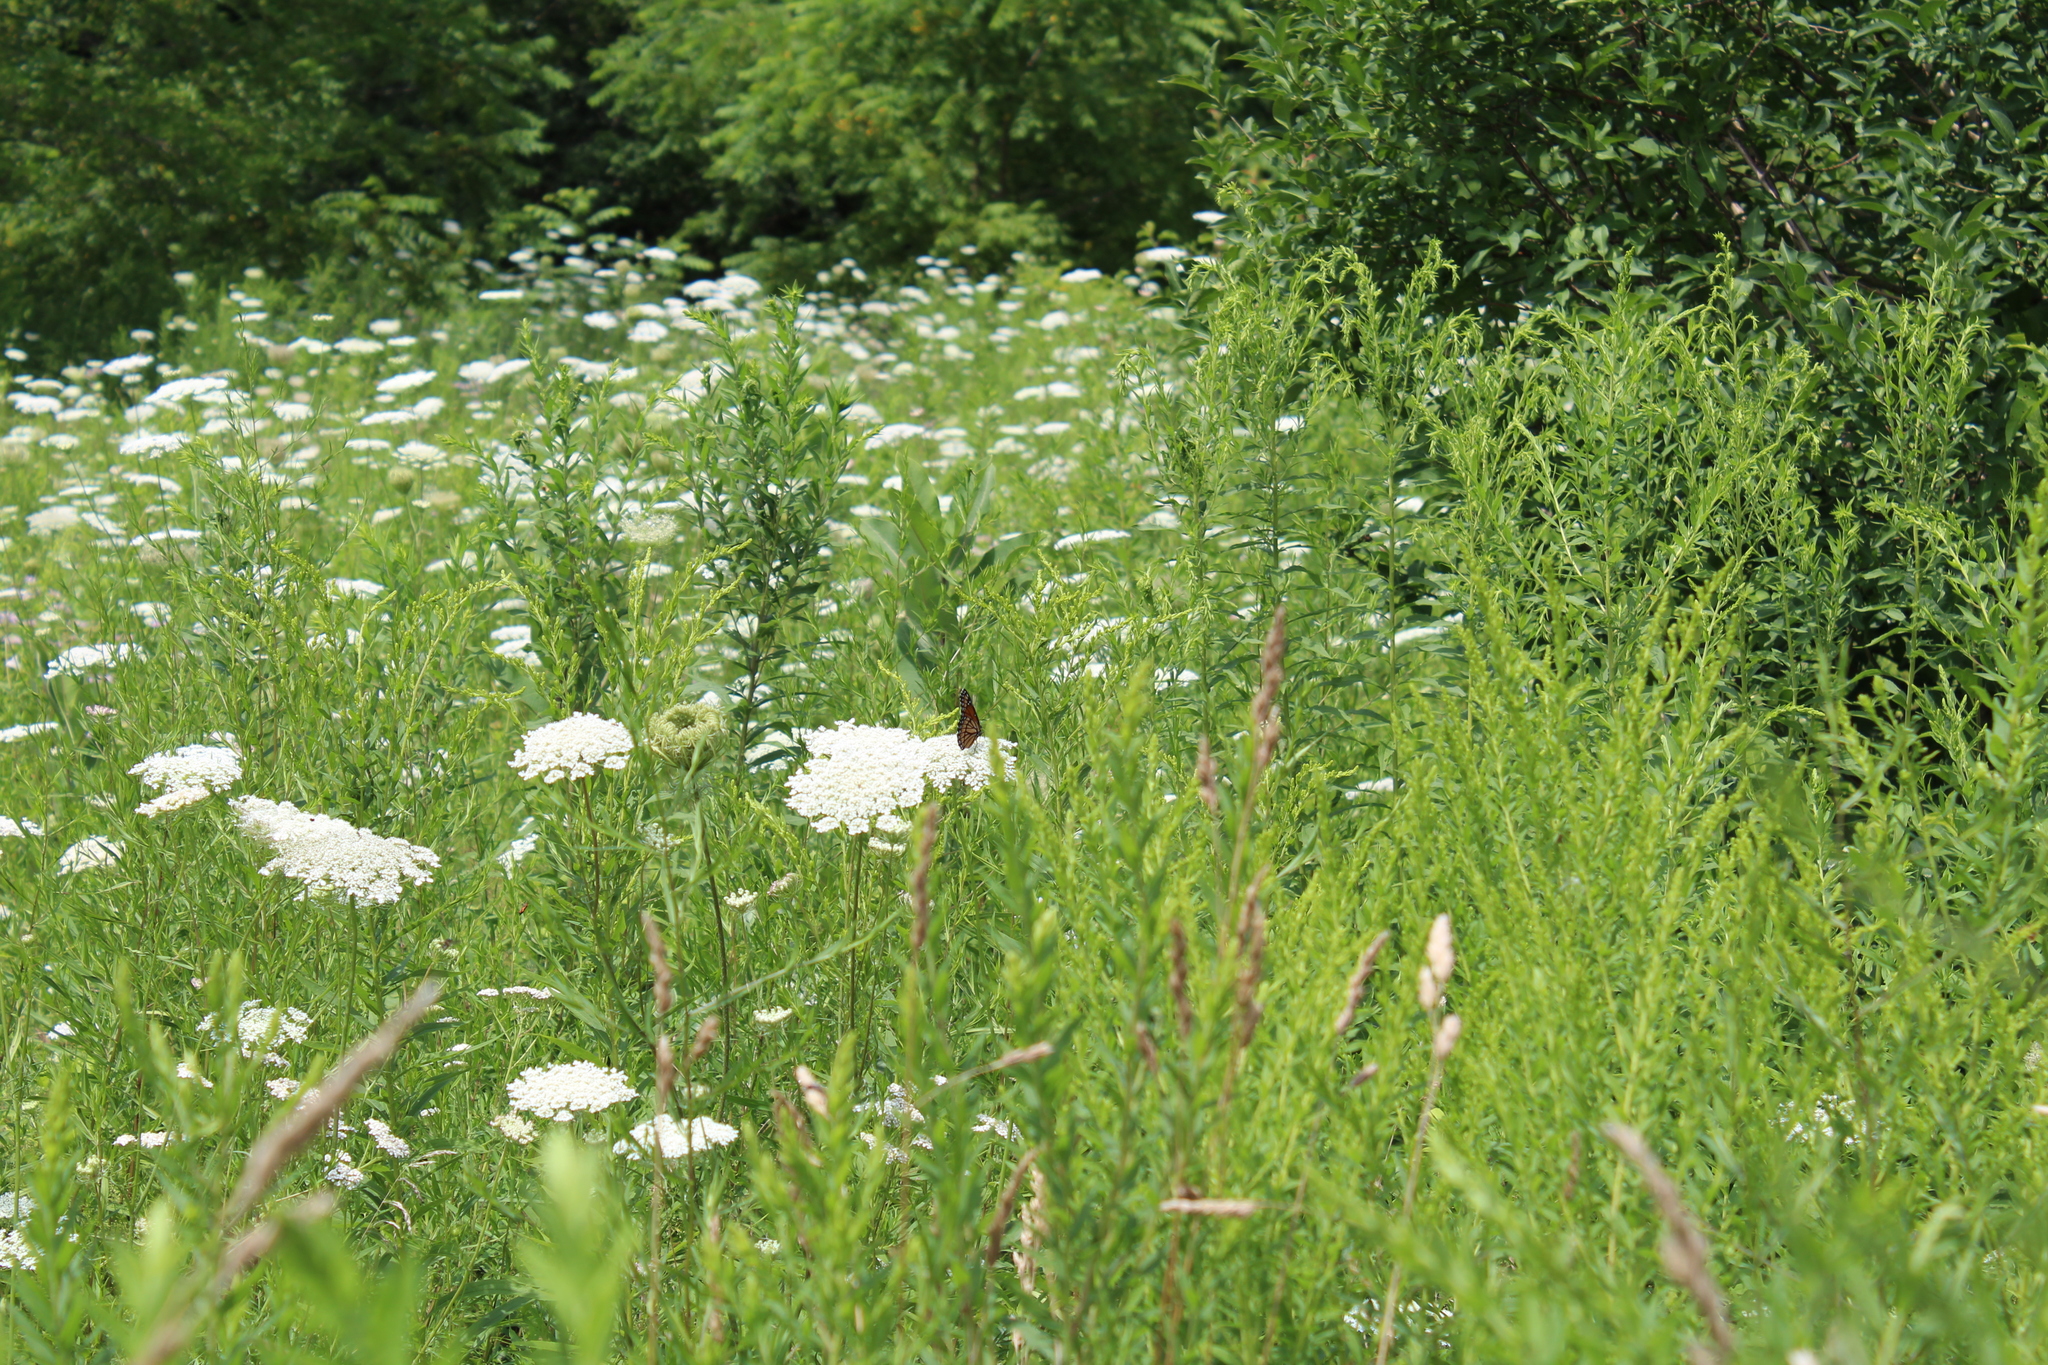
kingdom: Animalia
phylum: Arthropoda
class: Insecta
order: Lepidoptera
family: Nymphalidae
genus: Limenitis
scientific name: Limenitis archippus
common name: Viceroy
